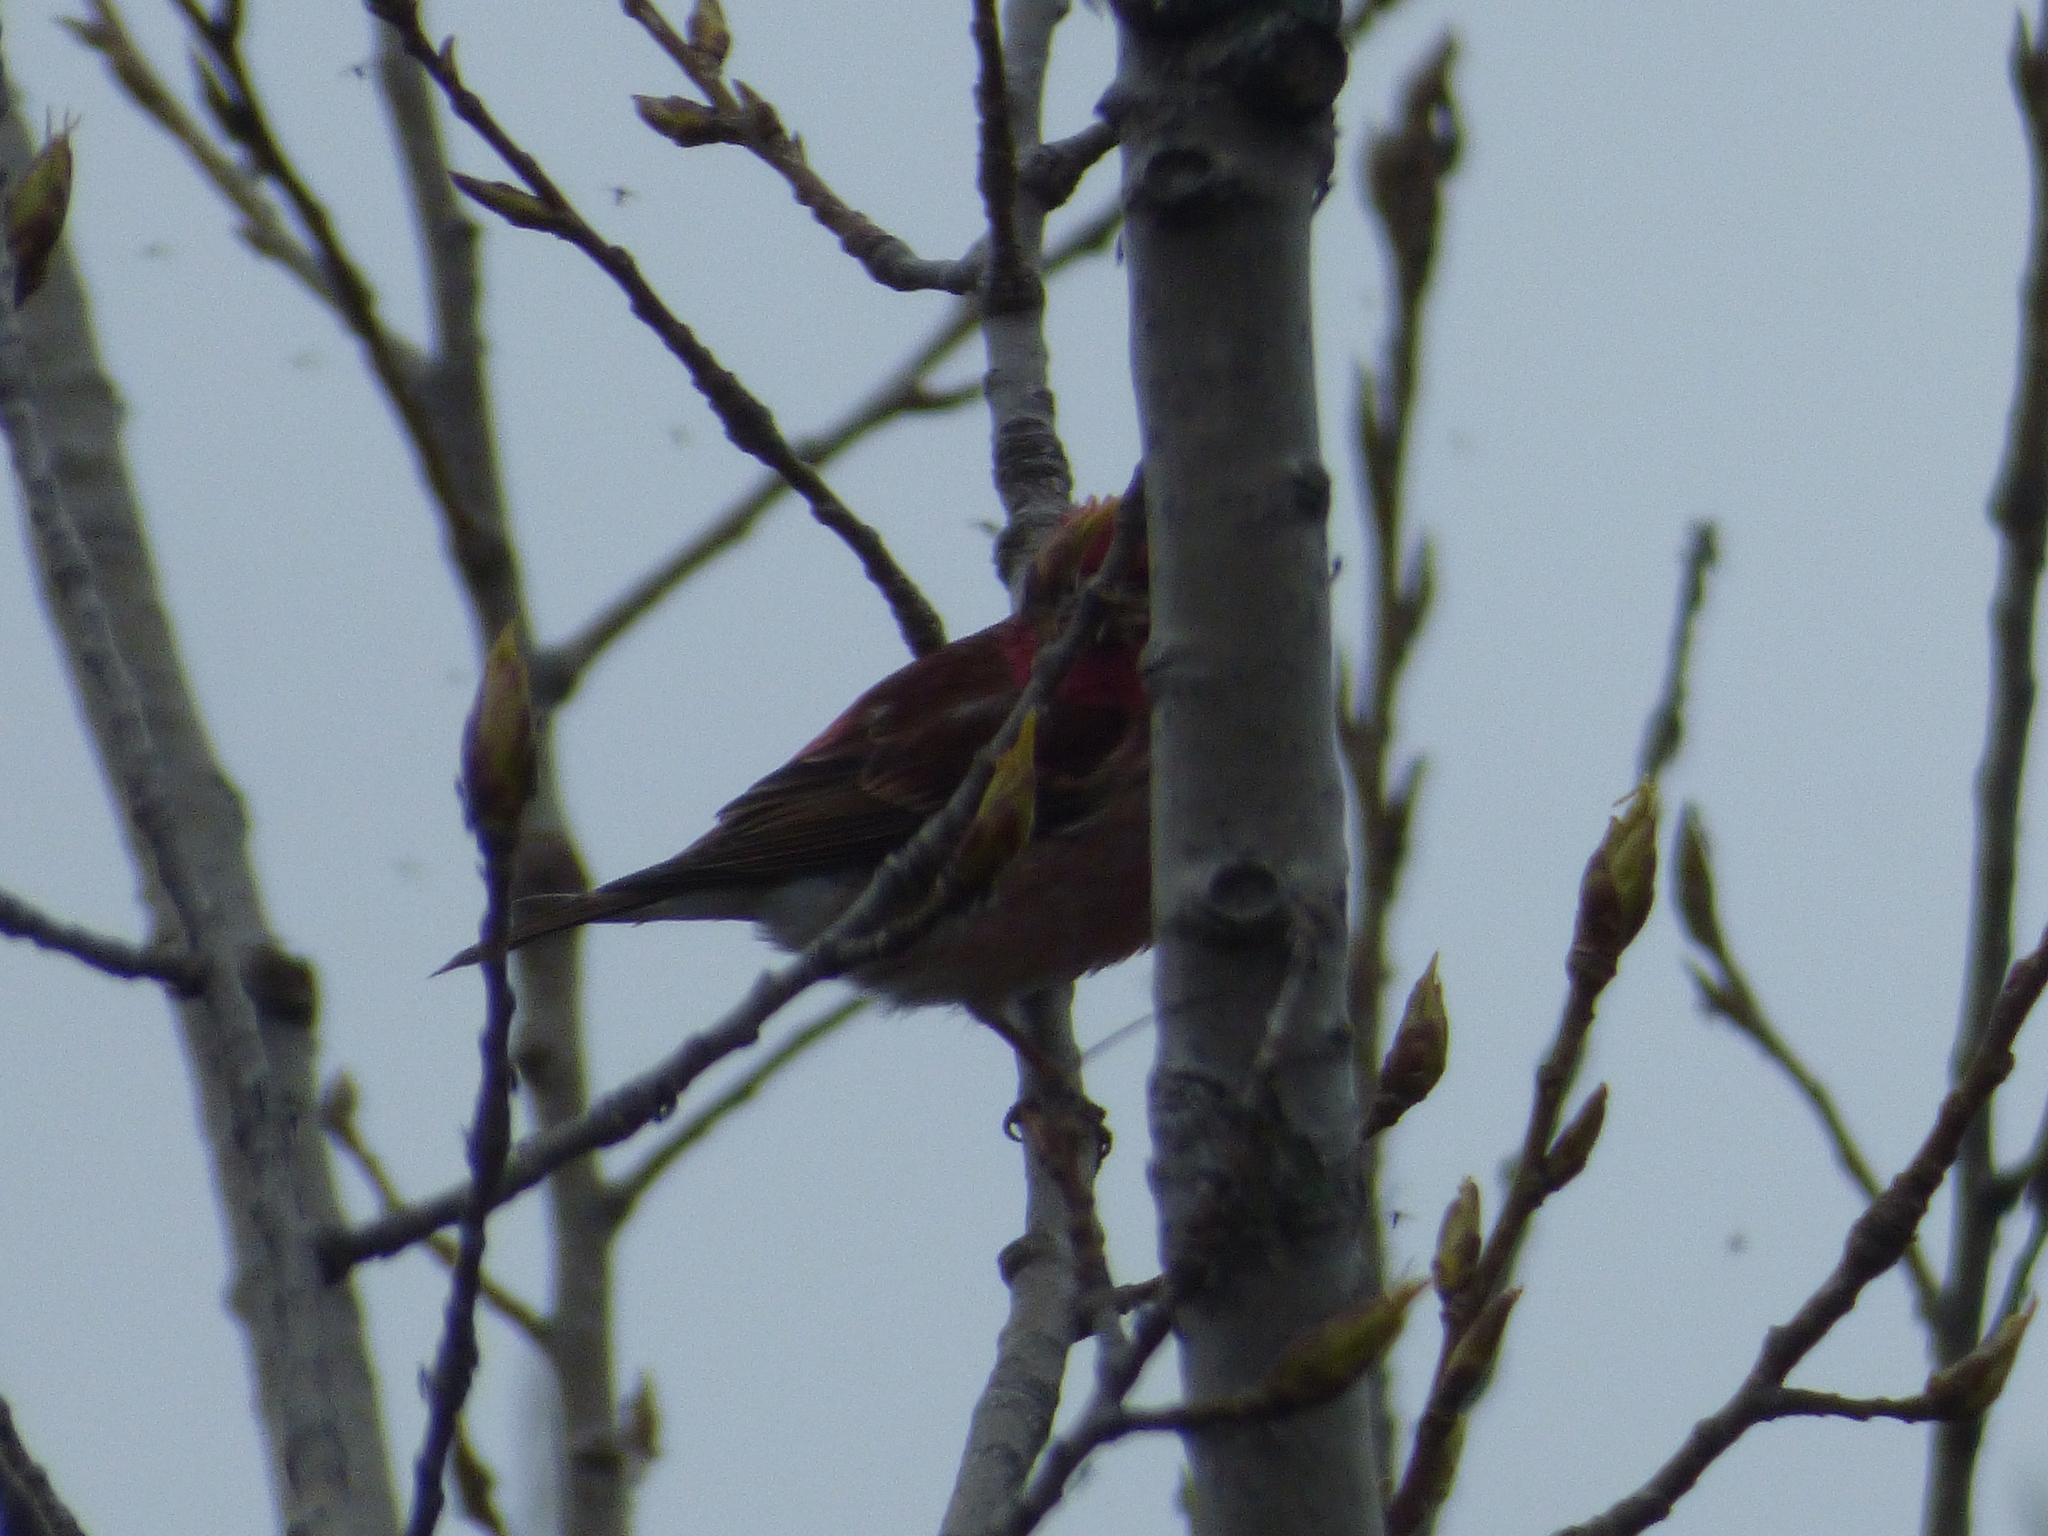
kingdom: Animalia
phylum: Chordata
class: Aves
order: Passeriformes
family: Fringillidae
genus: Haemorhous
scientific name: Haemorhous purpureus
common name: Purple finch
